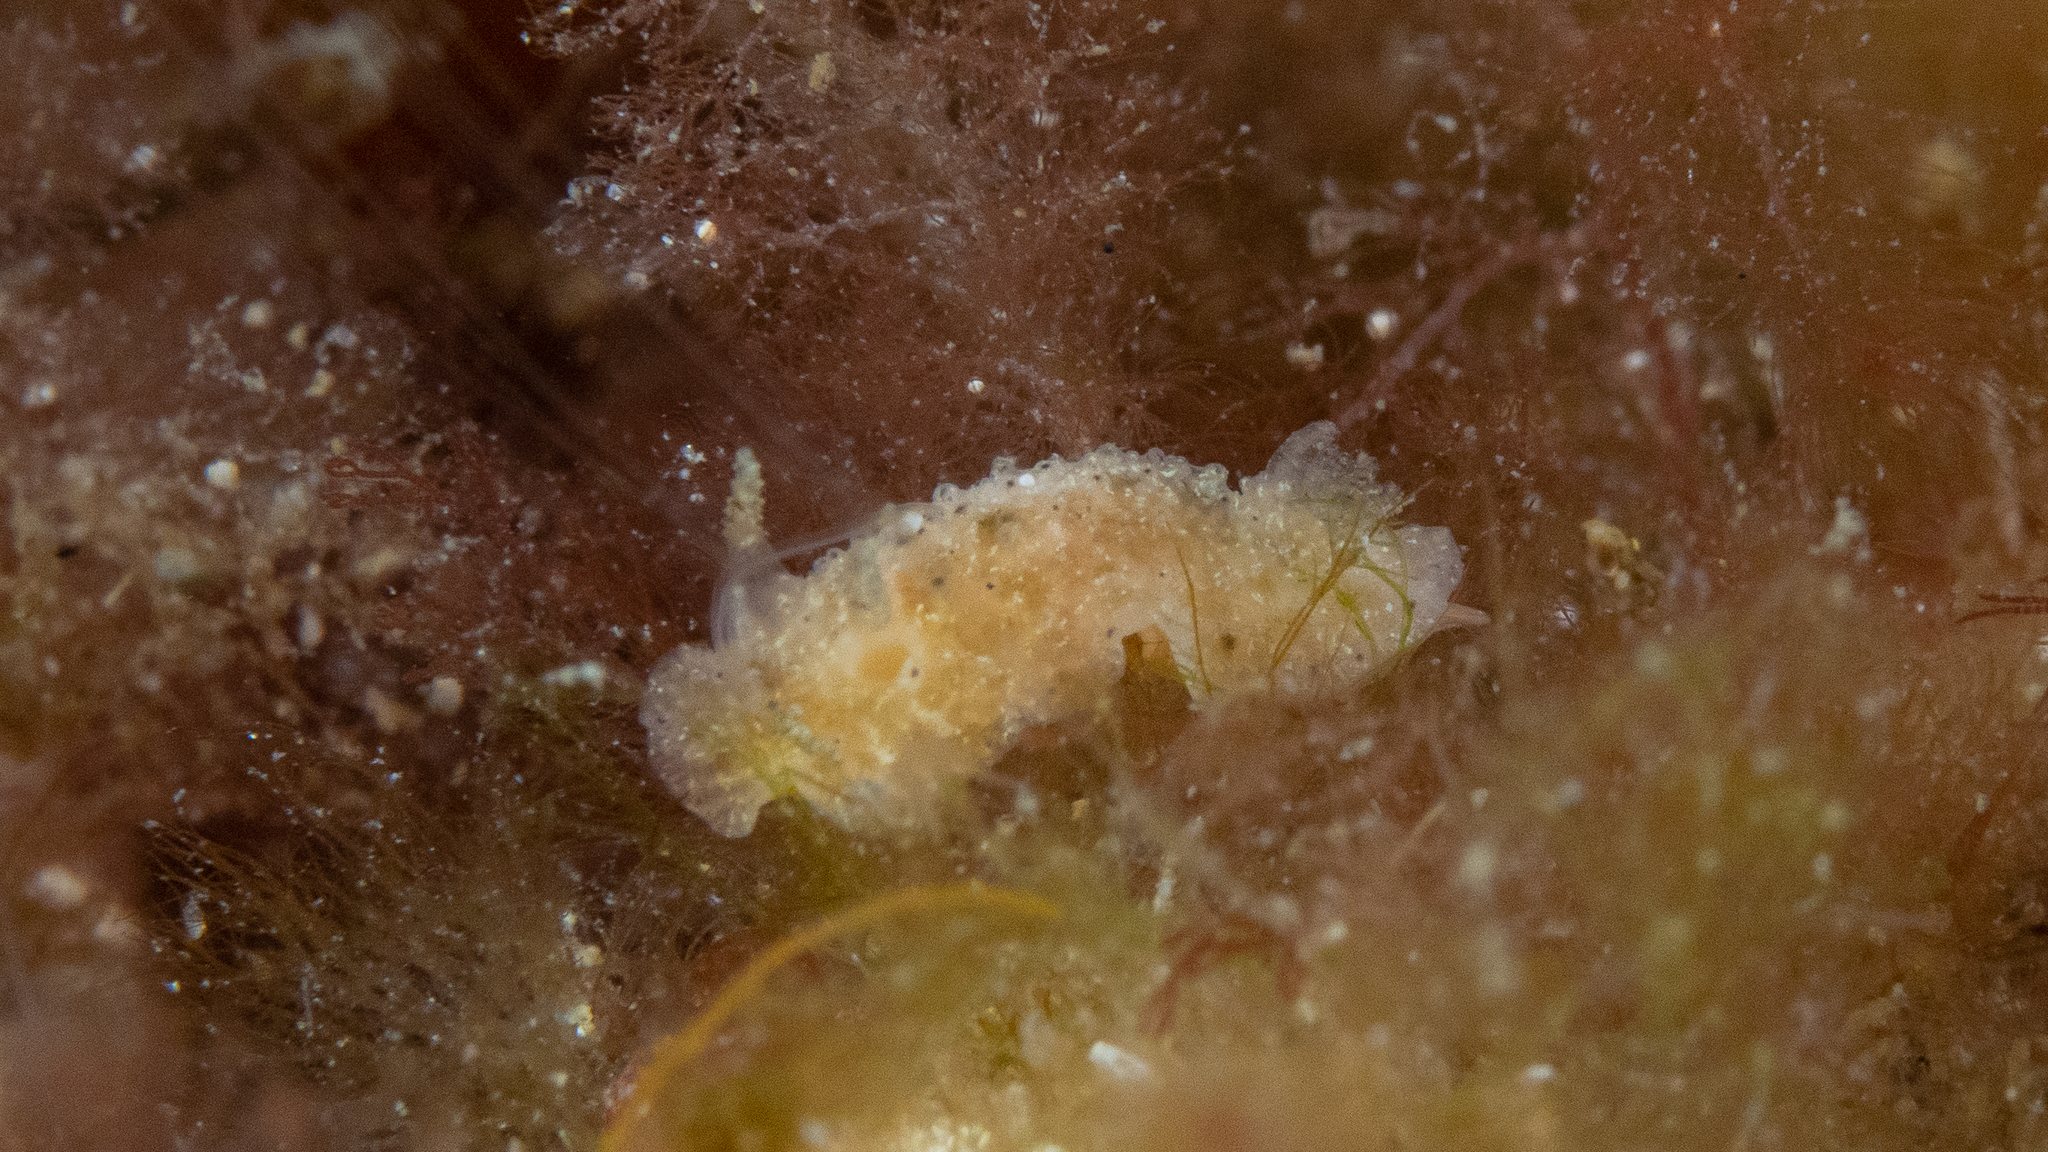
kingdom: Animalia
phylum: Mollusca
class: Gastropoda
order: Nudibranchia
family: Dorididae
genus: Doris
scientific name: Doris cameroni
